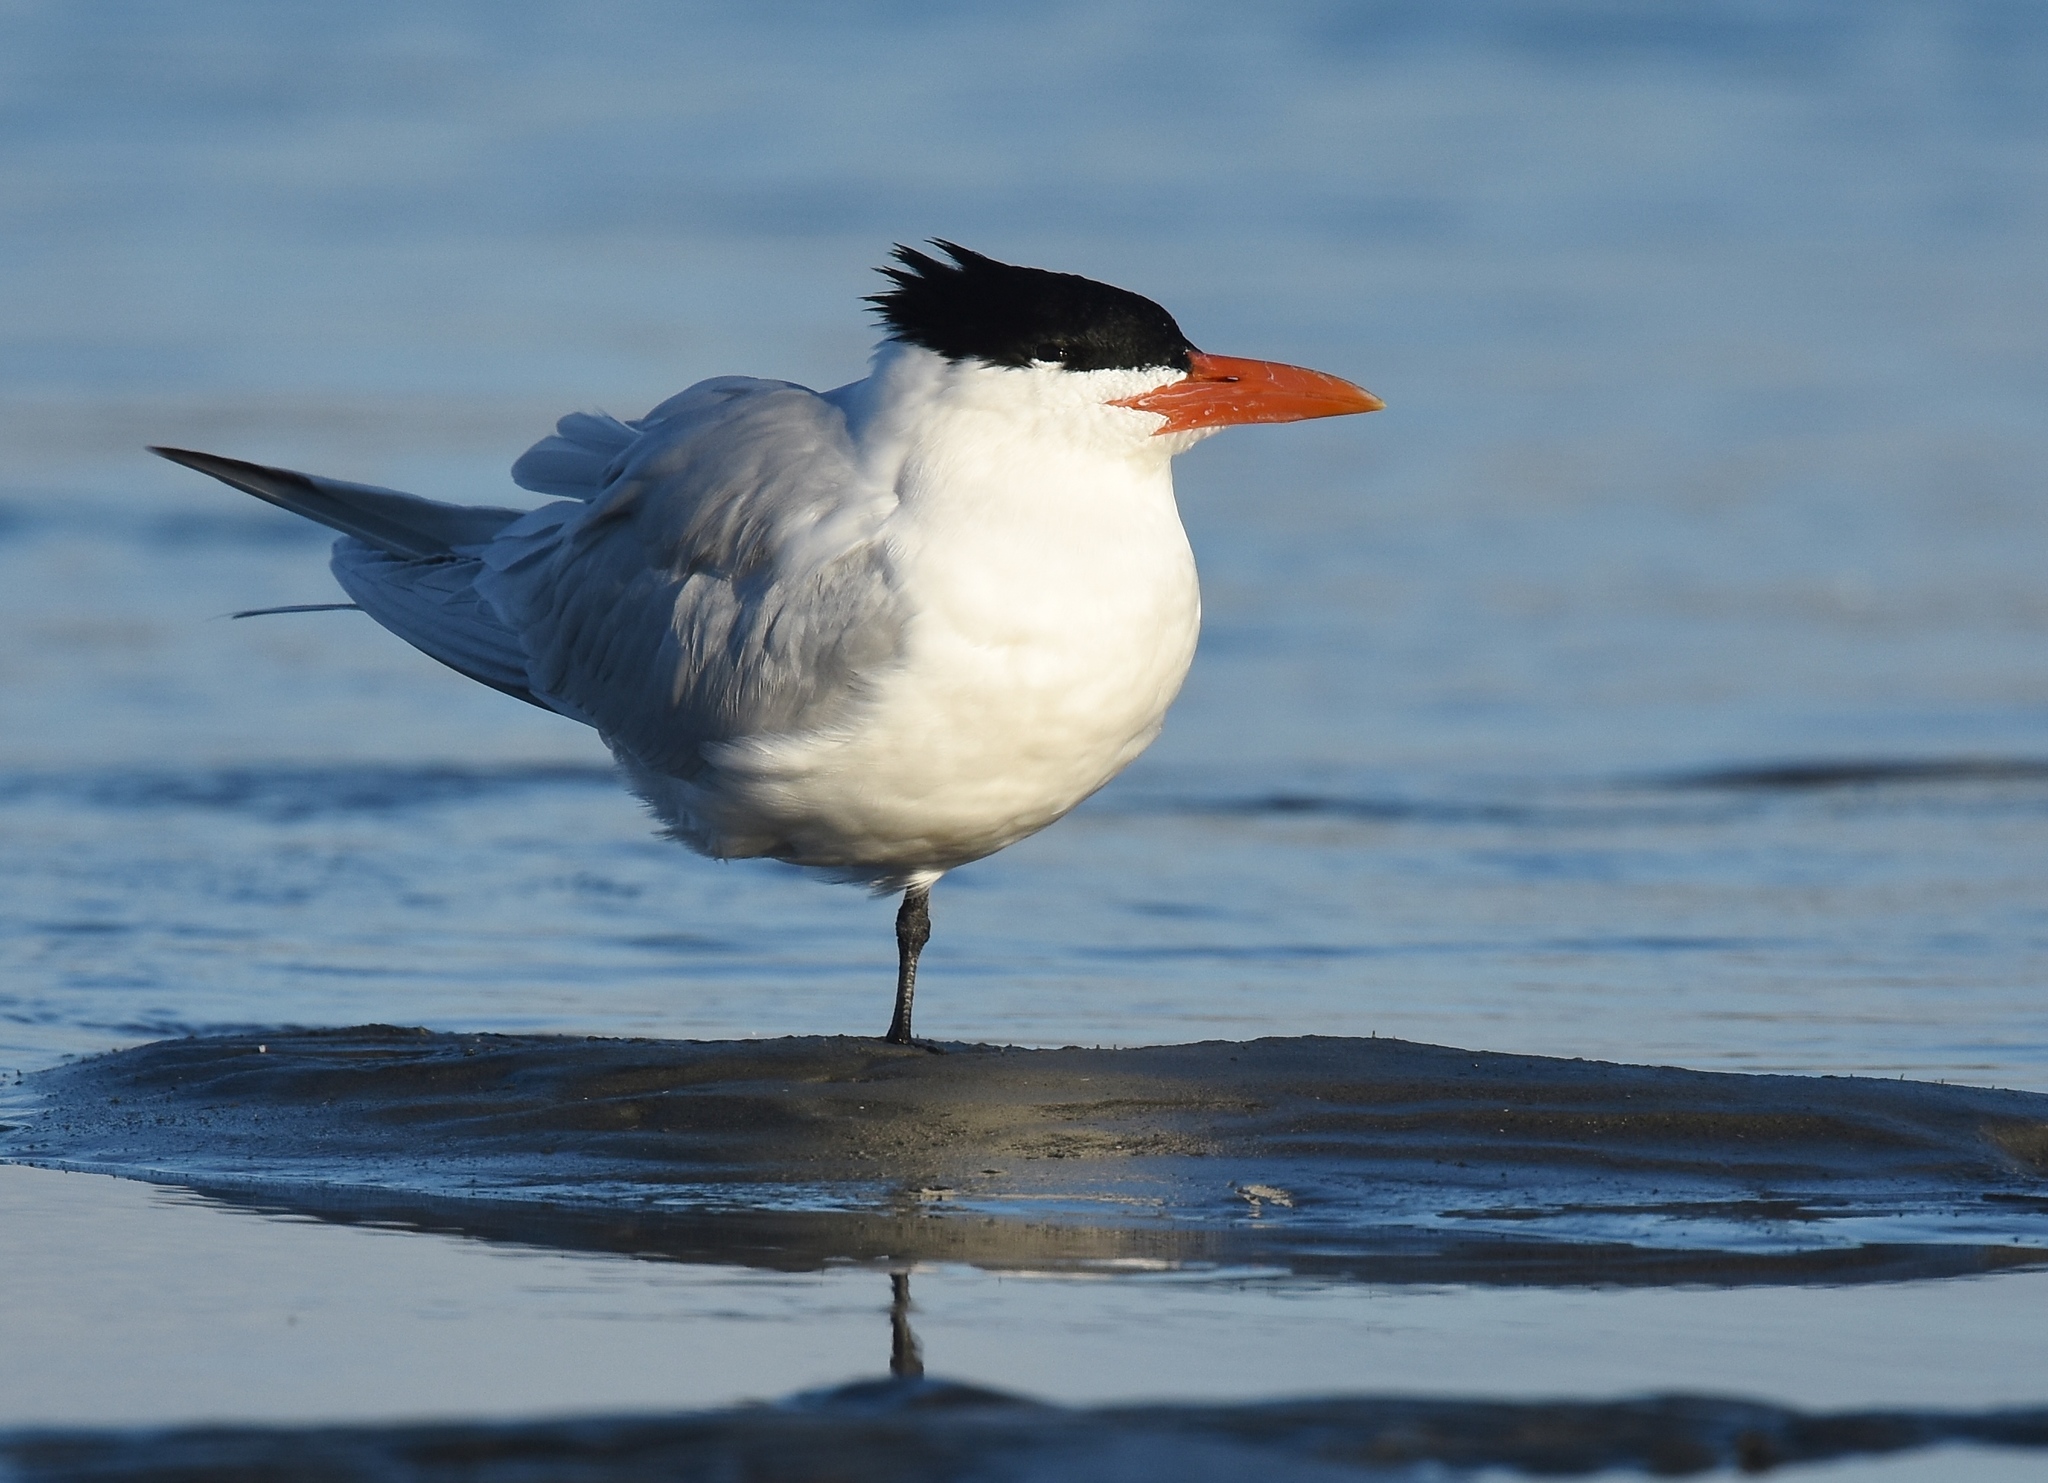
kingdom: Animalia
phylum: Chordata
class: Aves
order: Charadriiformes
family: Laridae
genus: Thalasseus
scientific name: Thalasseus maximus
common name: Royal tern
